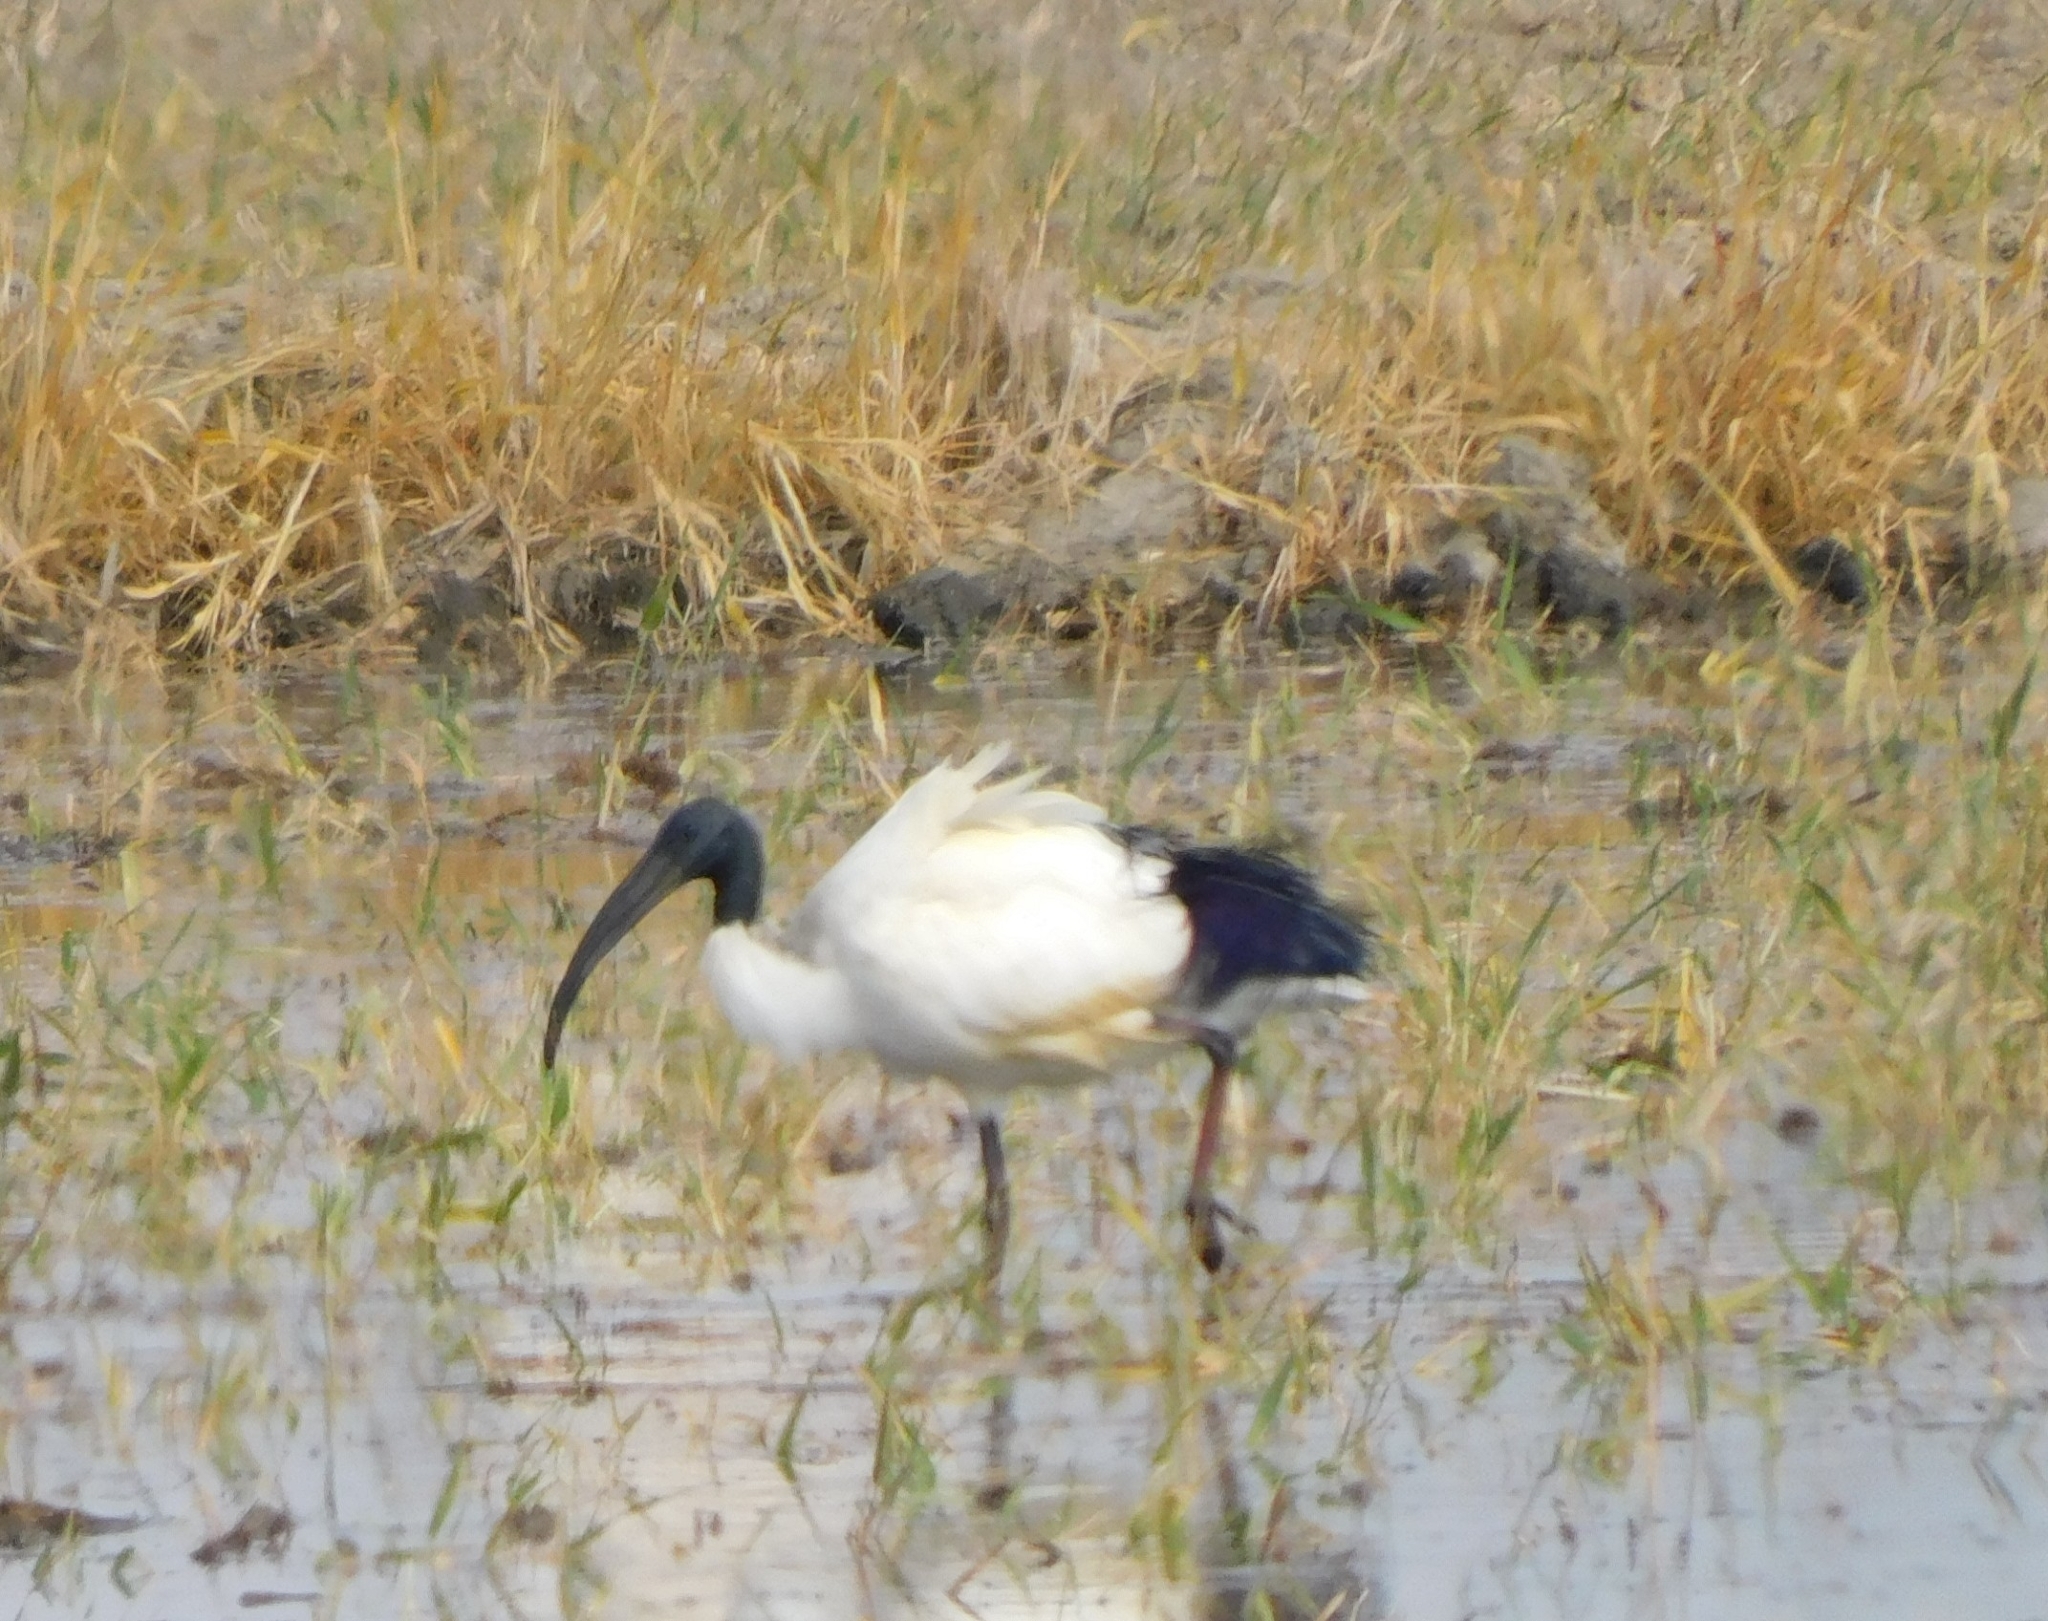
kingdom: Animalia
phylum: Chordata
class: Aves
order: Pelecaniformes
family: Threskiornithidae
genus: Threskiornis
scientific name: Threskiornis aethiopicus
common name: Sacred ibis
